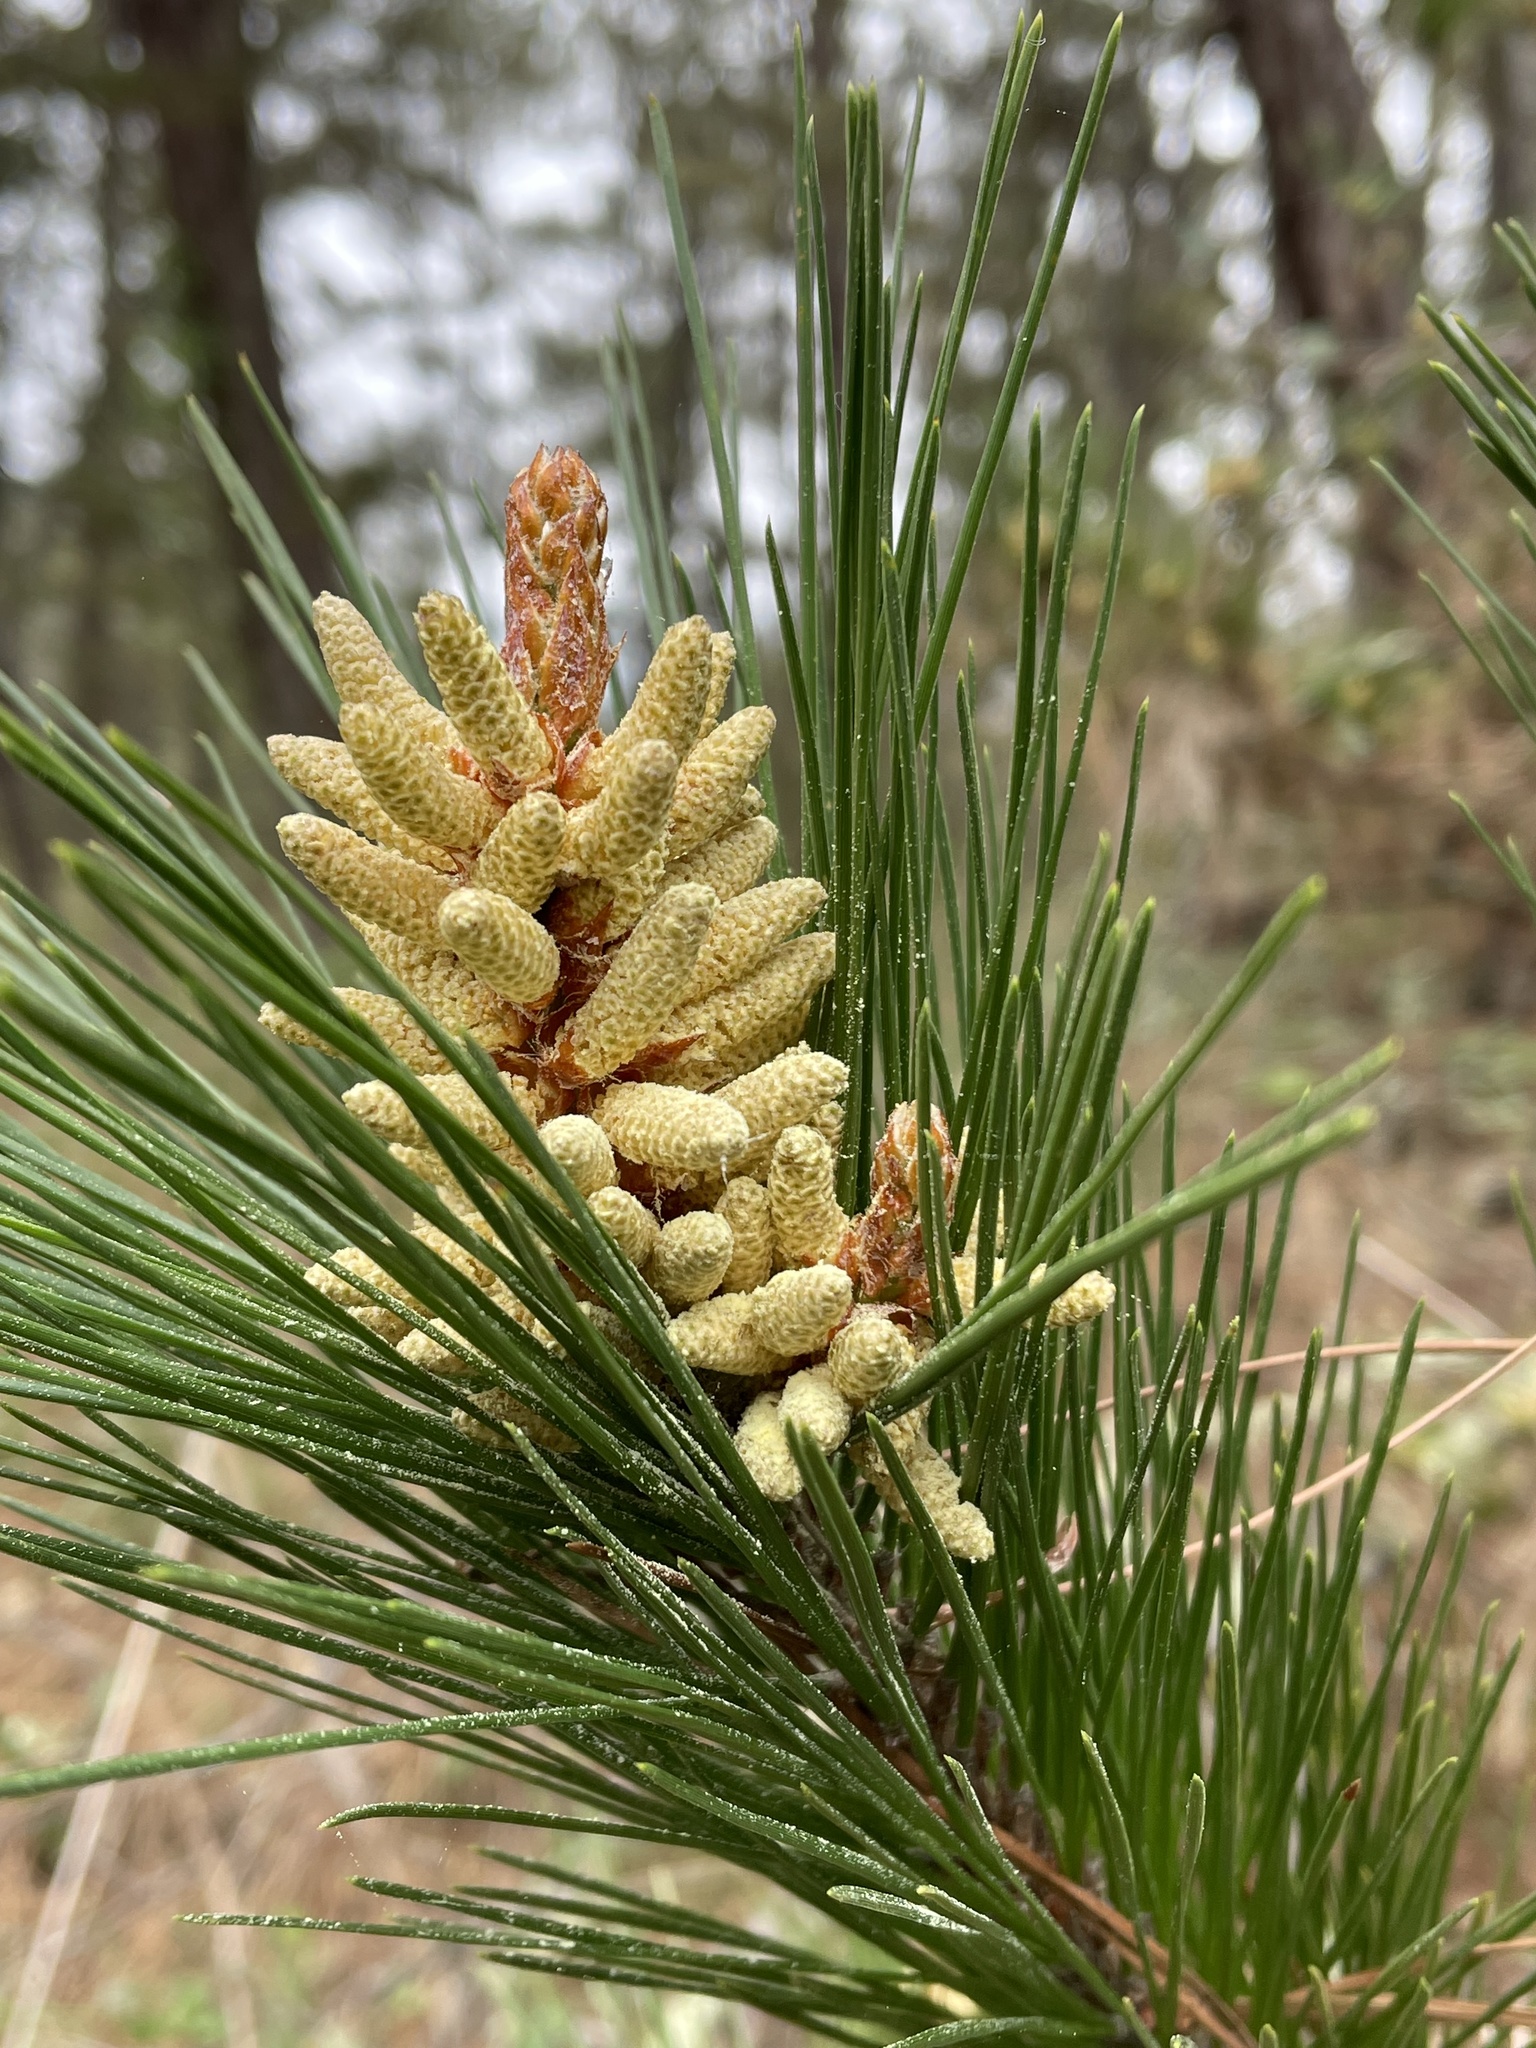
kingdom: Plantae
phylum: Tracheophyta
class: Pinopsida
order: Pinales
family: Pinaceae
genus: Pinus
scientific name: Pinus radiata
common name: Monterey pine
